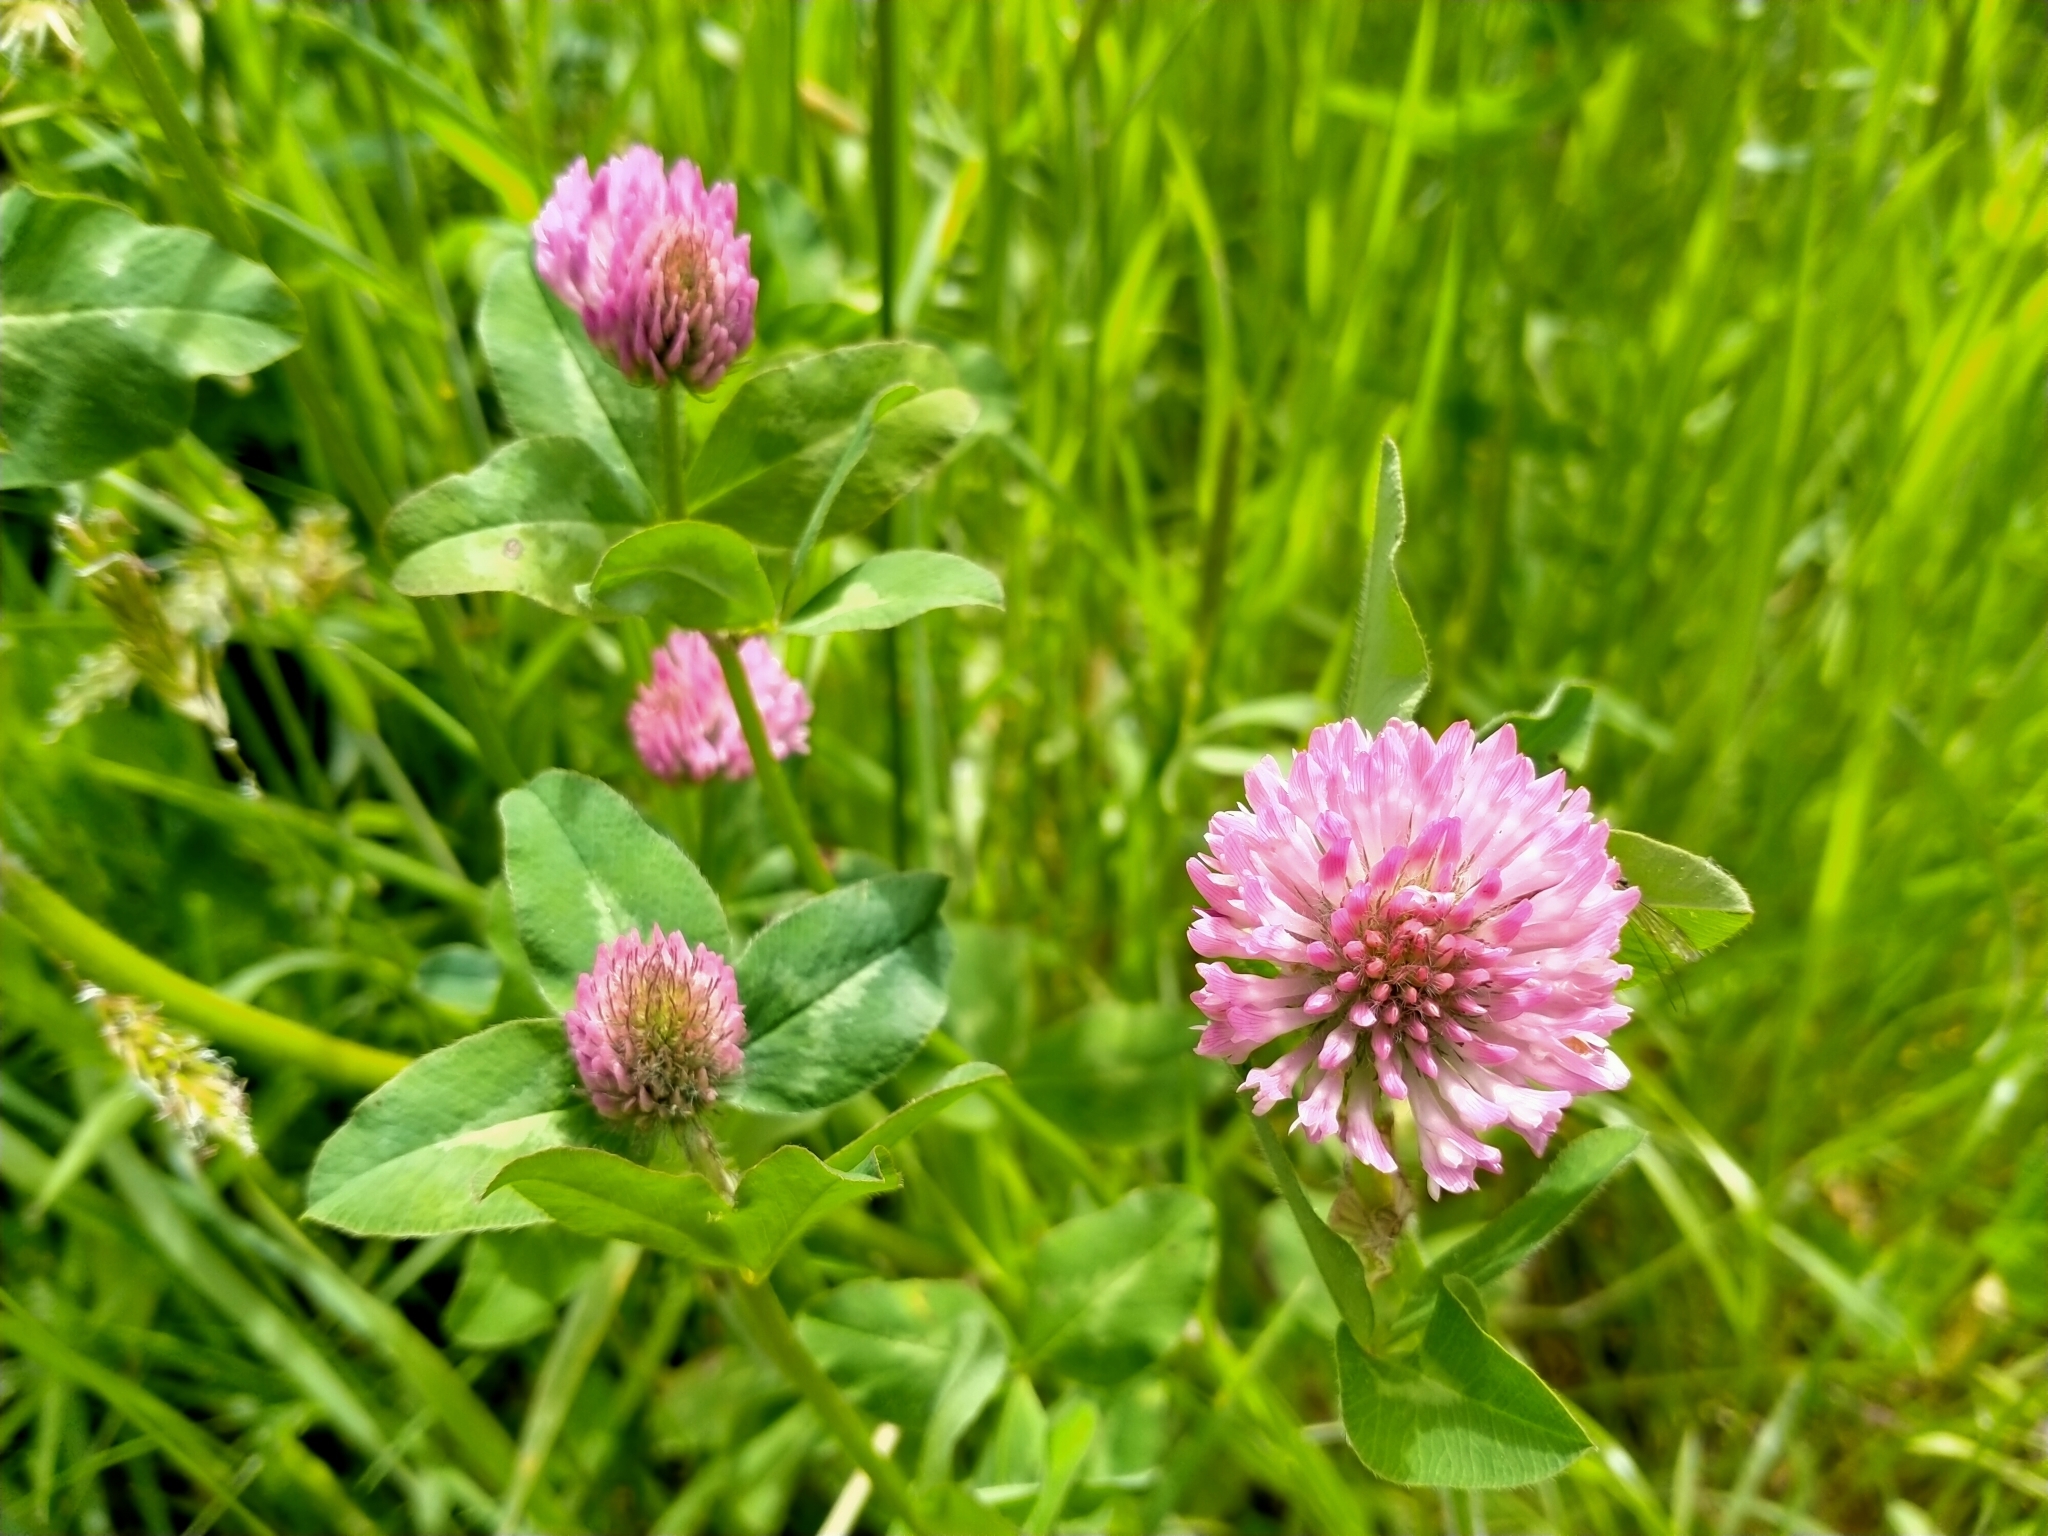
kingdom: Plantae
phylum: Tracheophyta
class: Magnoliopsida
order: Fabales
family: Fabaceae
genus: Trifolium
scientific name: Trifolium pratense
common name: Red clover
